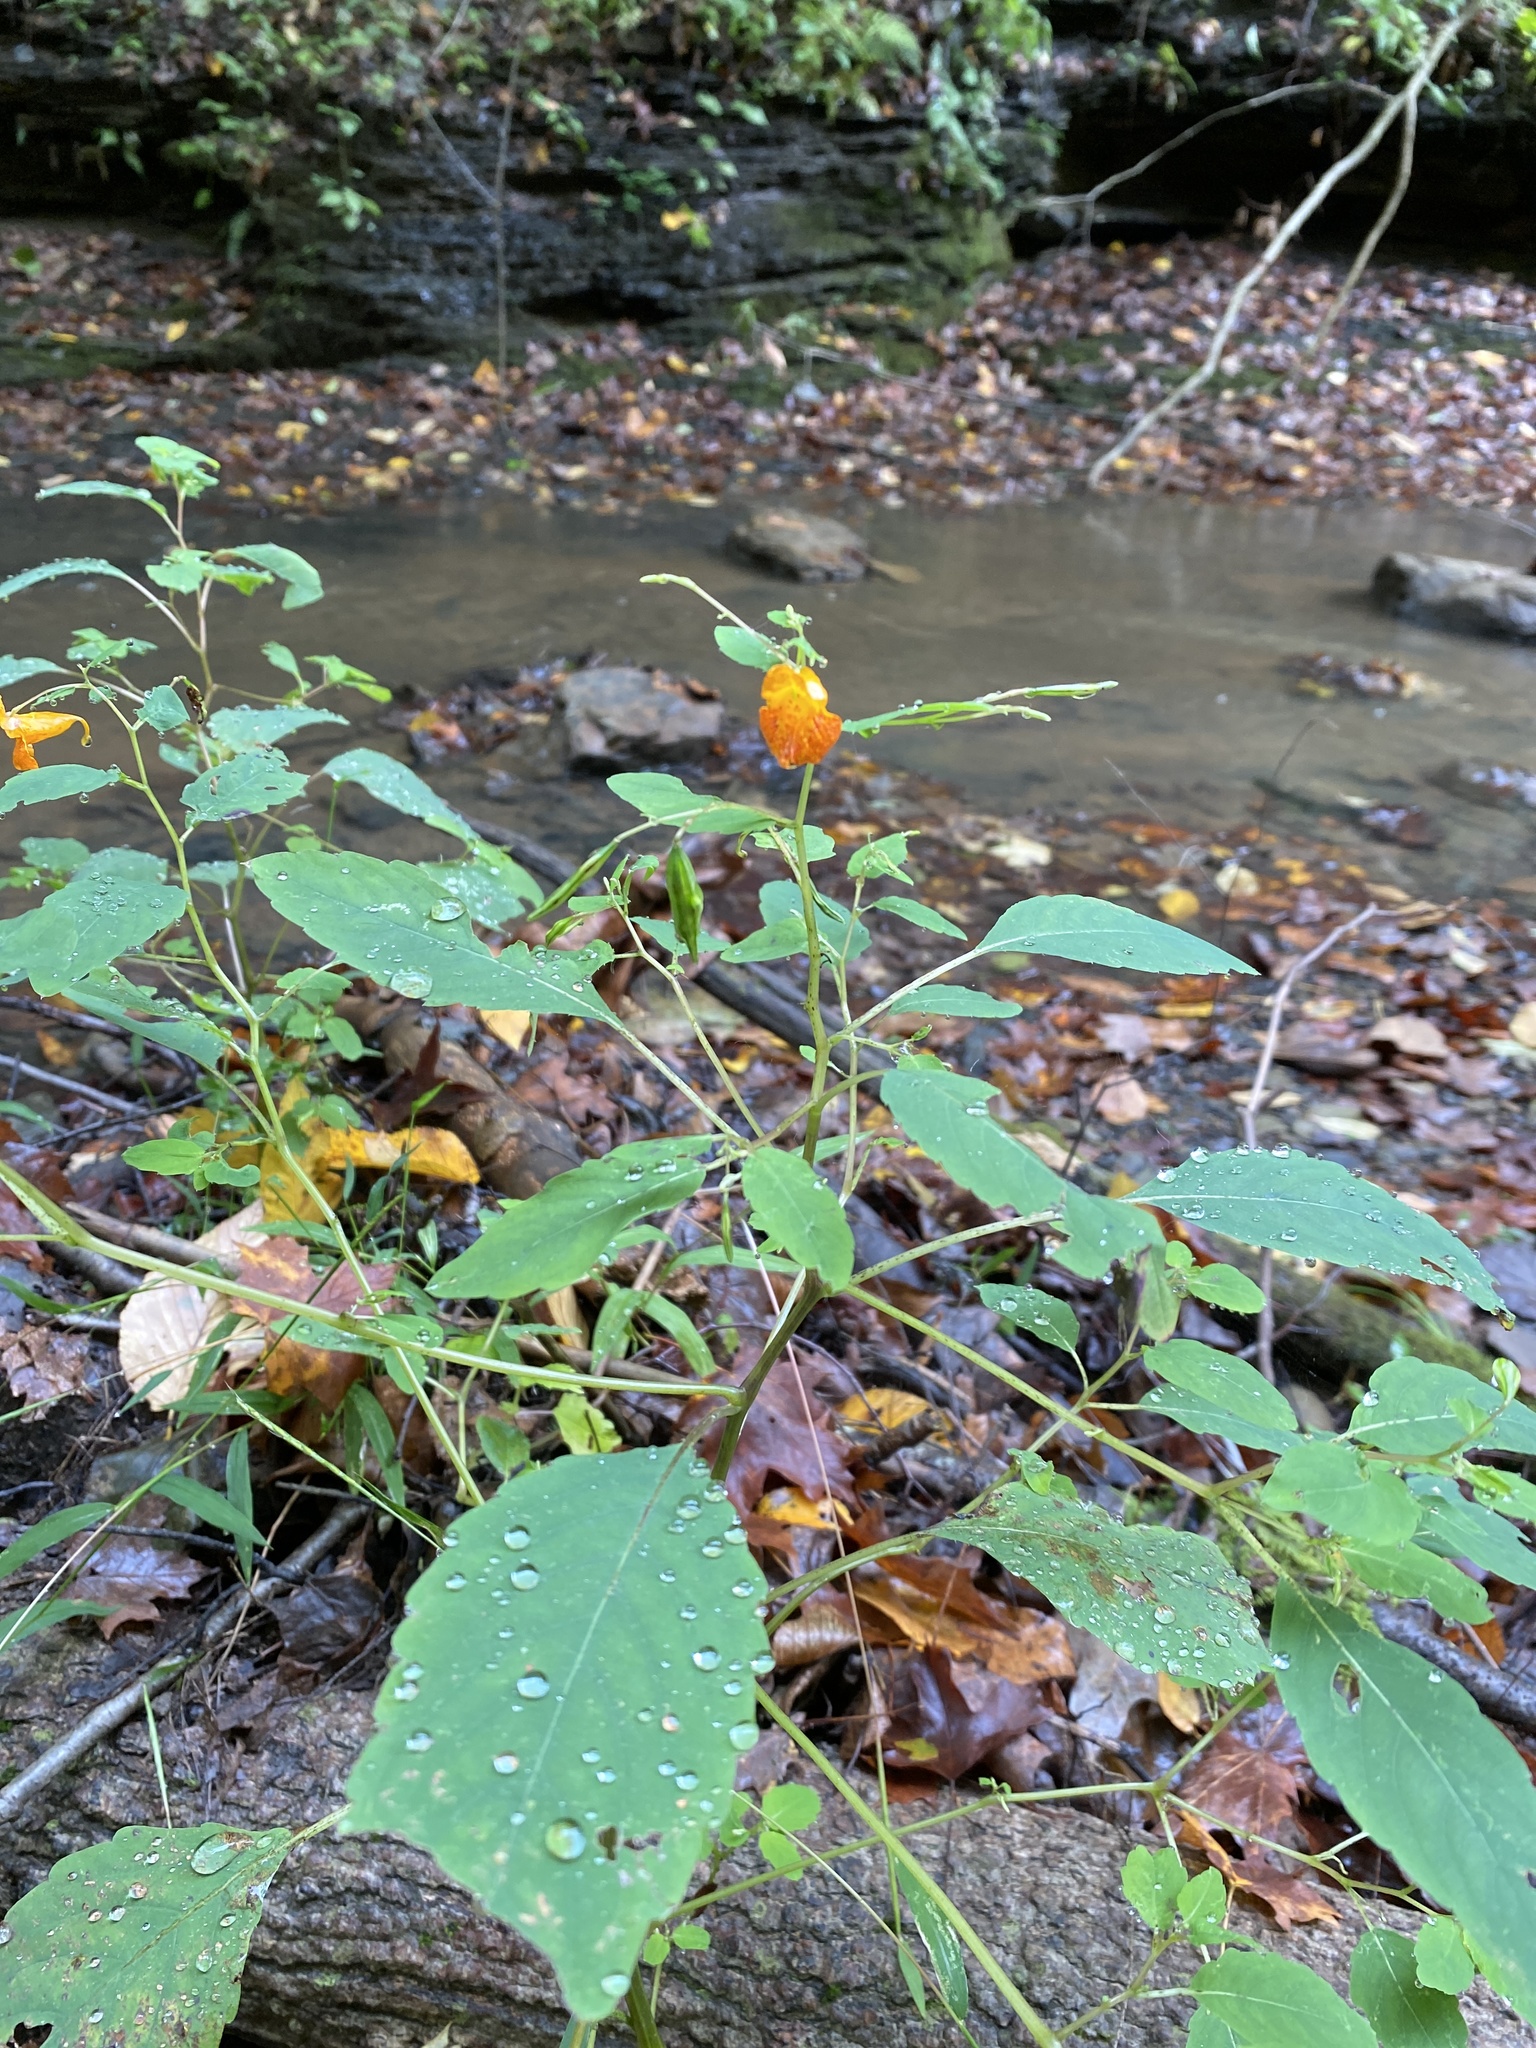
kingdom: Plantae
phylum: Tracheophyta
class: Magnoliopsida
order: Ericales
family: Balsaminaceae
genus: Impatiens
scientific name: Impatiens capensis
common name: Orange balsam
